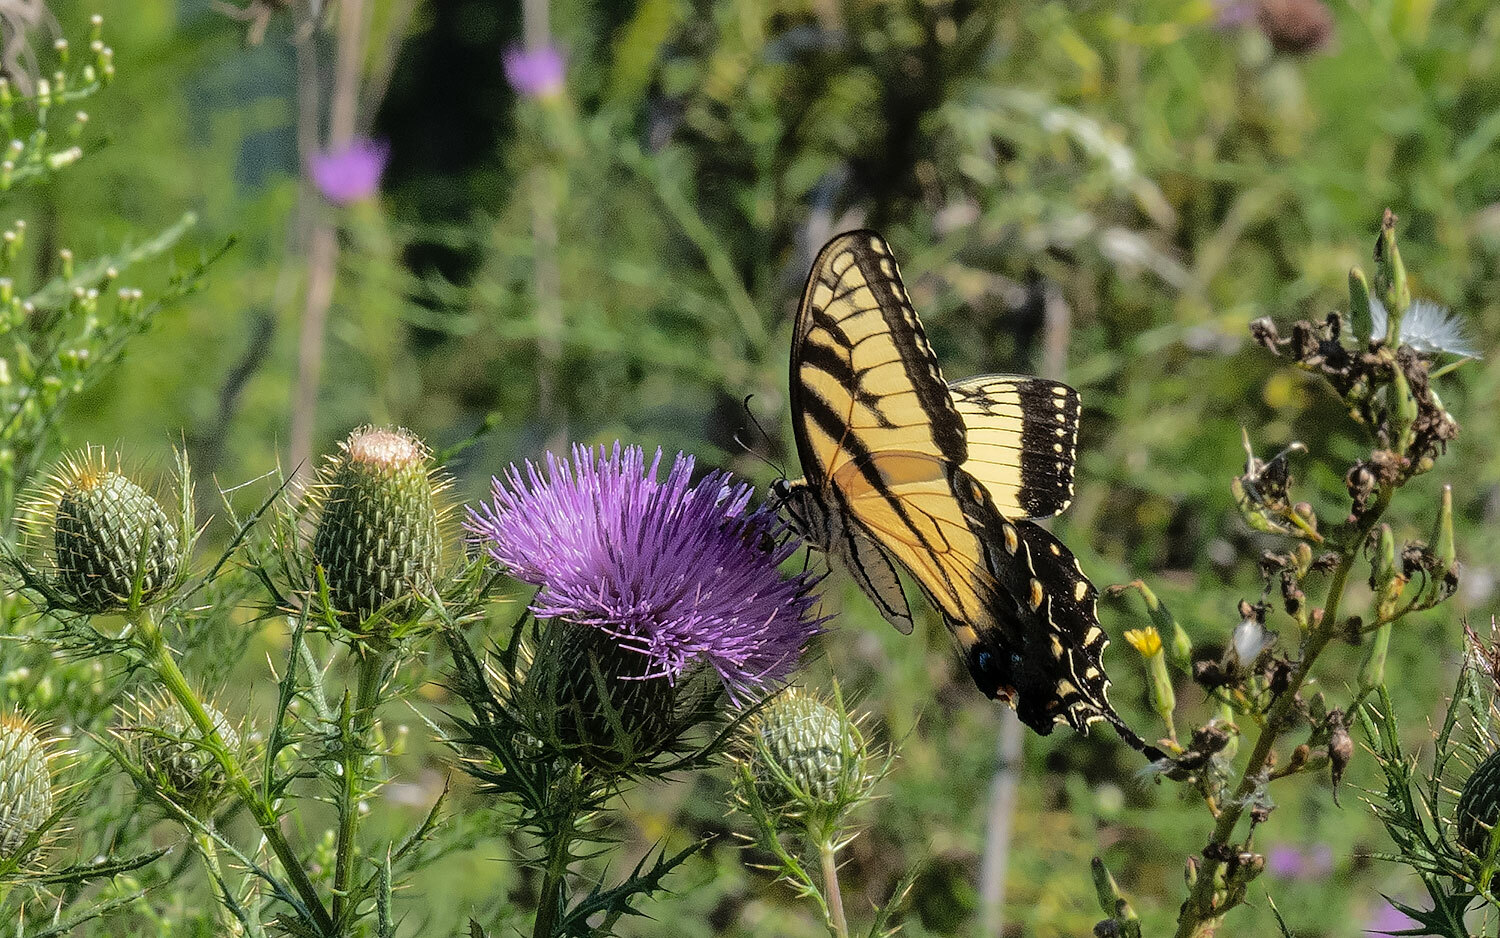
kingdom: Animalia
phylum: Arthropoda
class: Insecta
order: Lepidoptera
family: Papilionidae
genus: Papilio
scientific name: Papilio glaucus
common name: Tiger swallowtail
